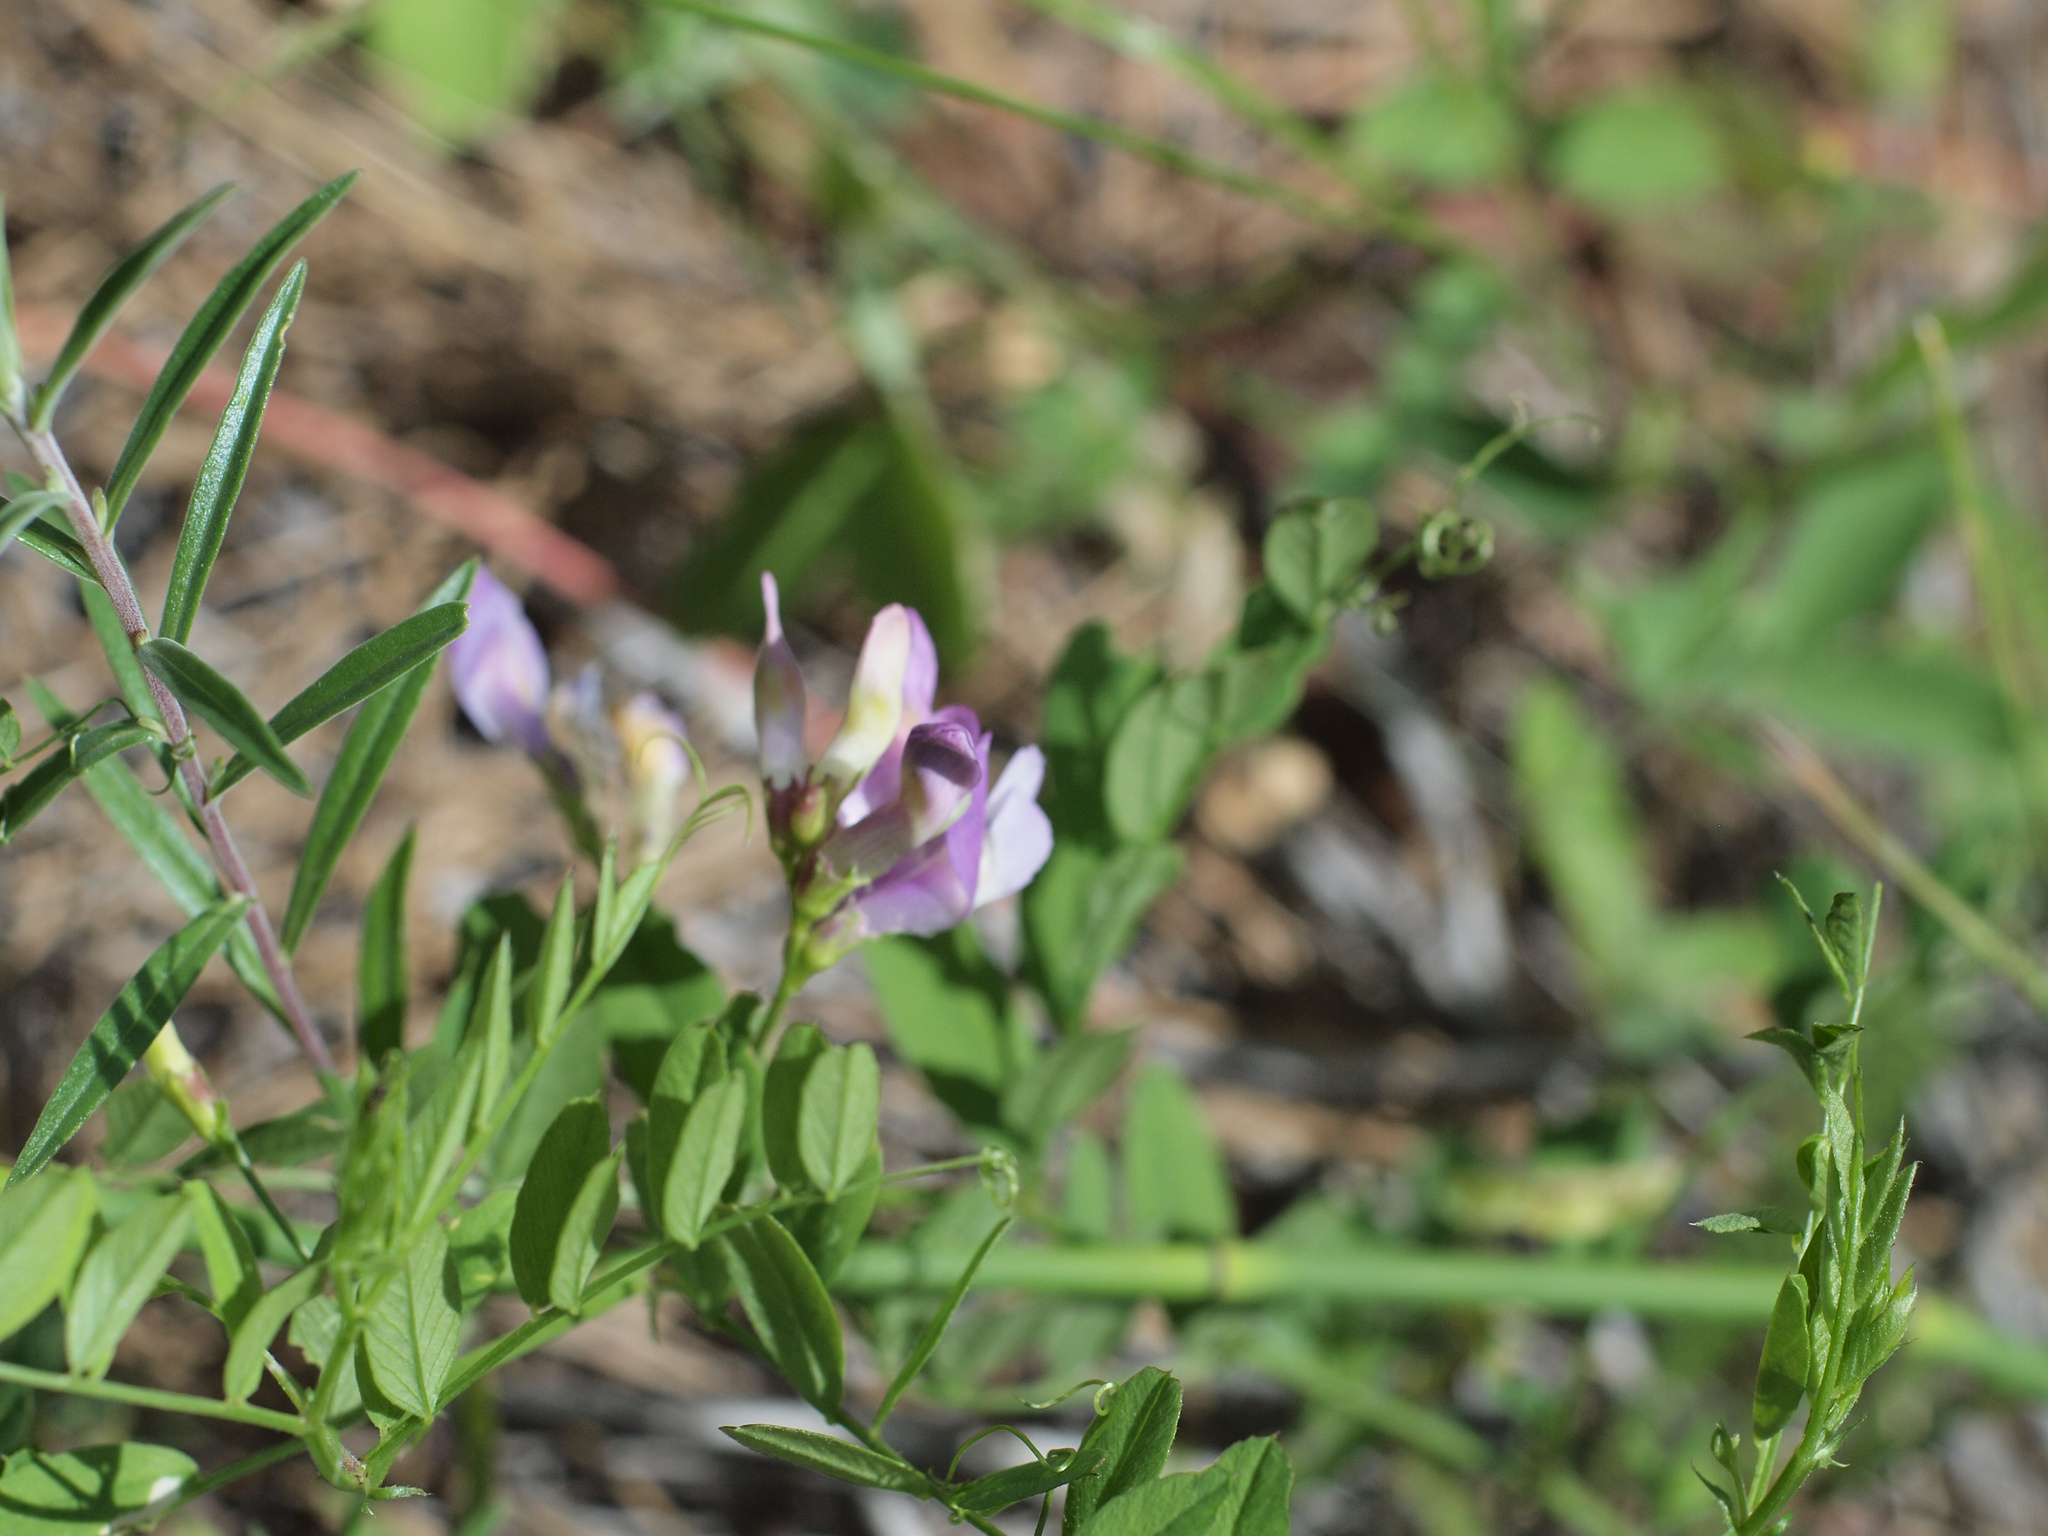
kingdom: Plantae
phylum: Tracheophyta
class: Magnoliopsida
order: Fabales
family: Fabaceae
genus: Vicia
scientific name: Vicia americana
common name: American vetch
